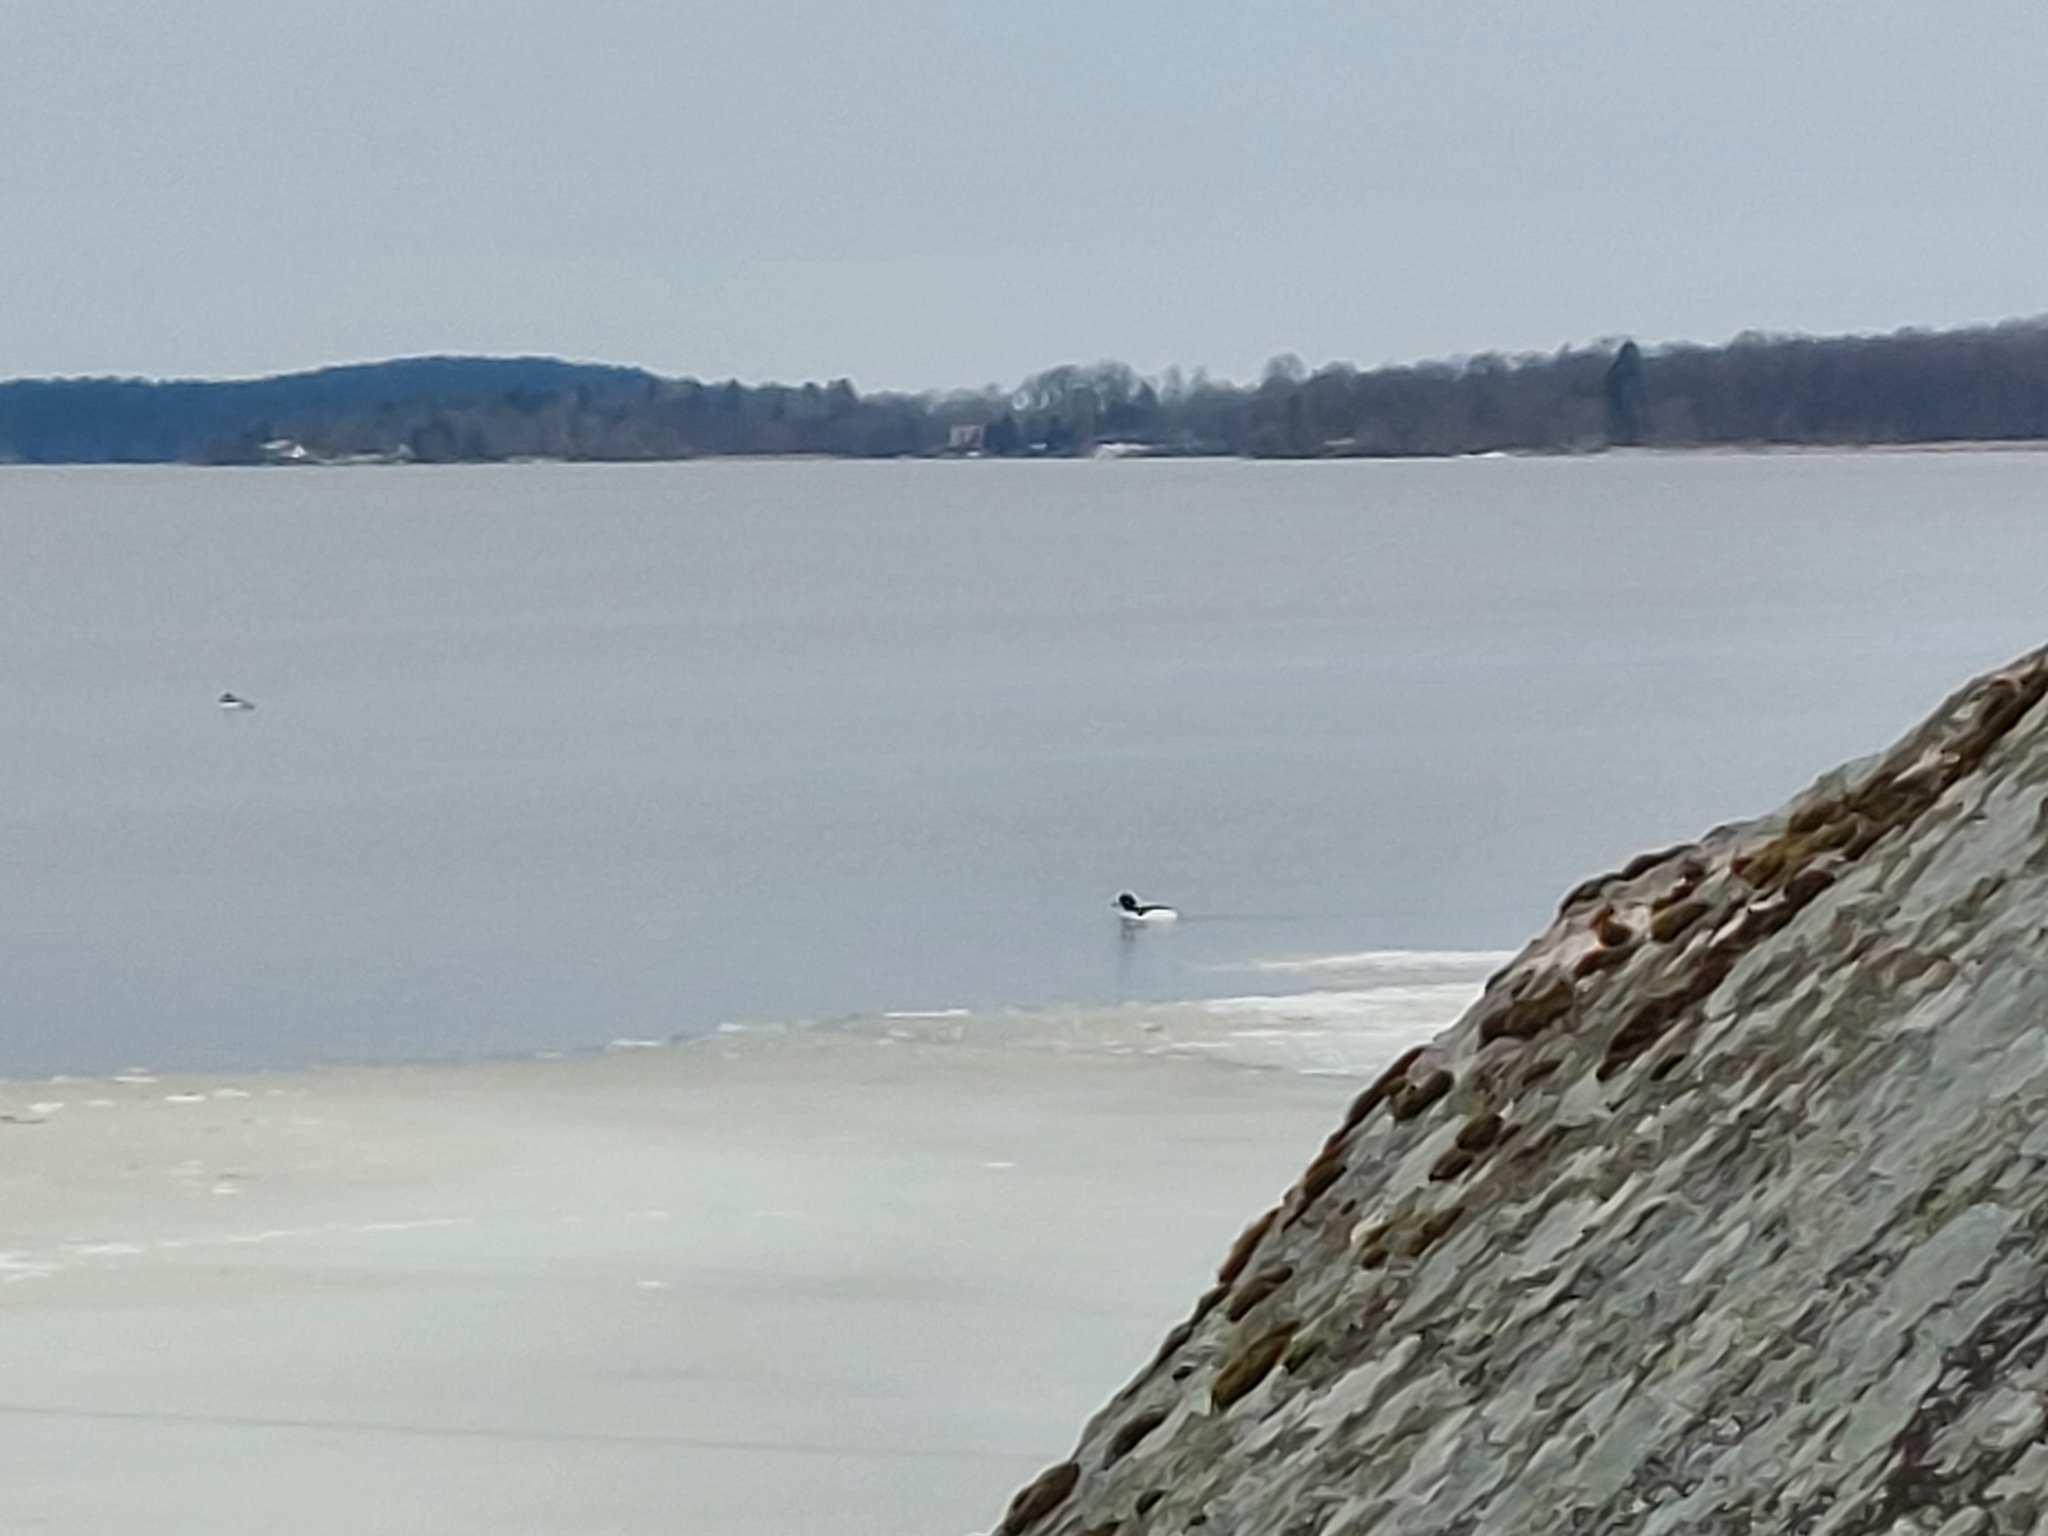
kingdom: Animalia
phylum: Chordata
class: Aves
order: Anseriformes
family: Anatidae
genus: Mergus
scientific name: Mergus merganser
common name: Common merganser
